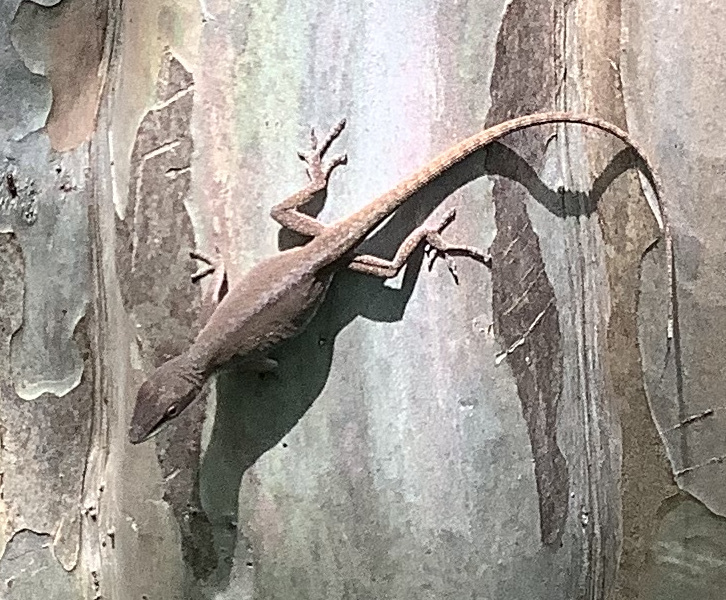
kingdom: Animalia
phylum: Chordata
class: Squamata
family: Dactyloidae
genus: Anolis
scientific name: Anolis carolinensis
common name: Green anole
